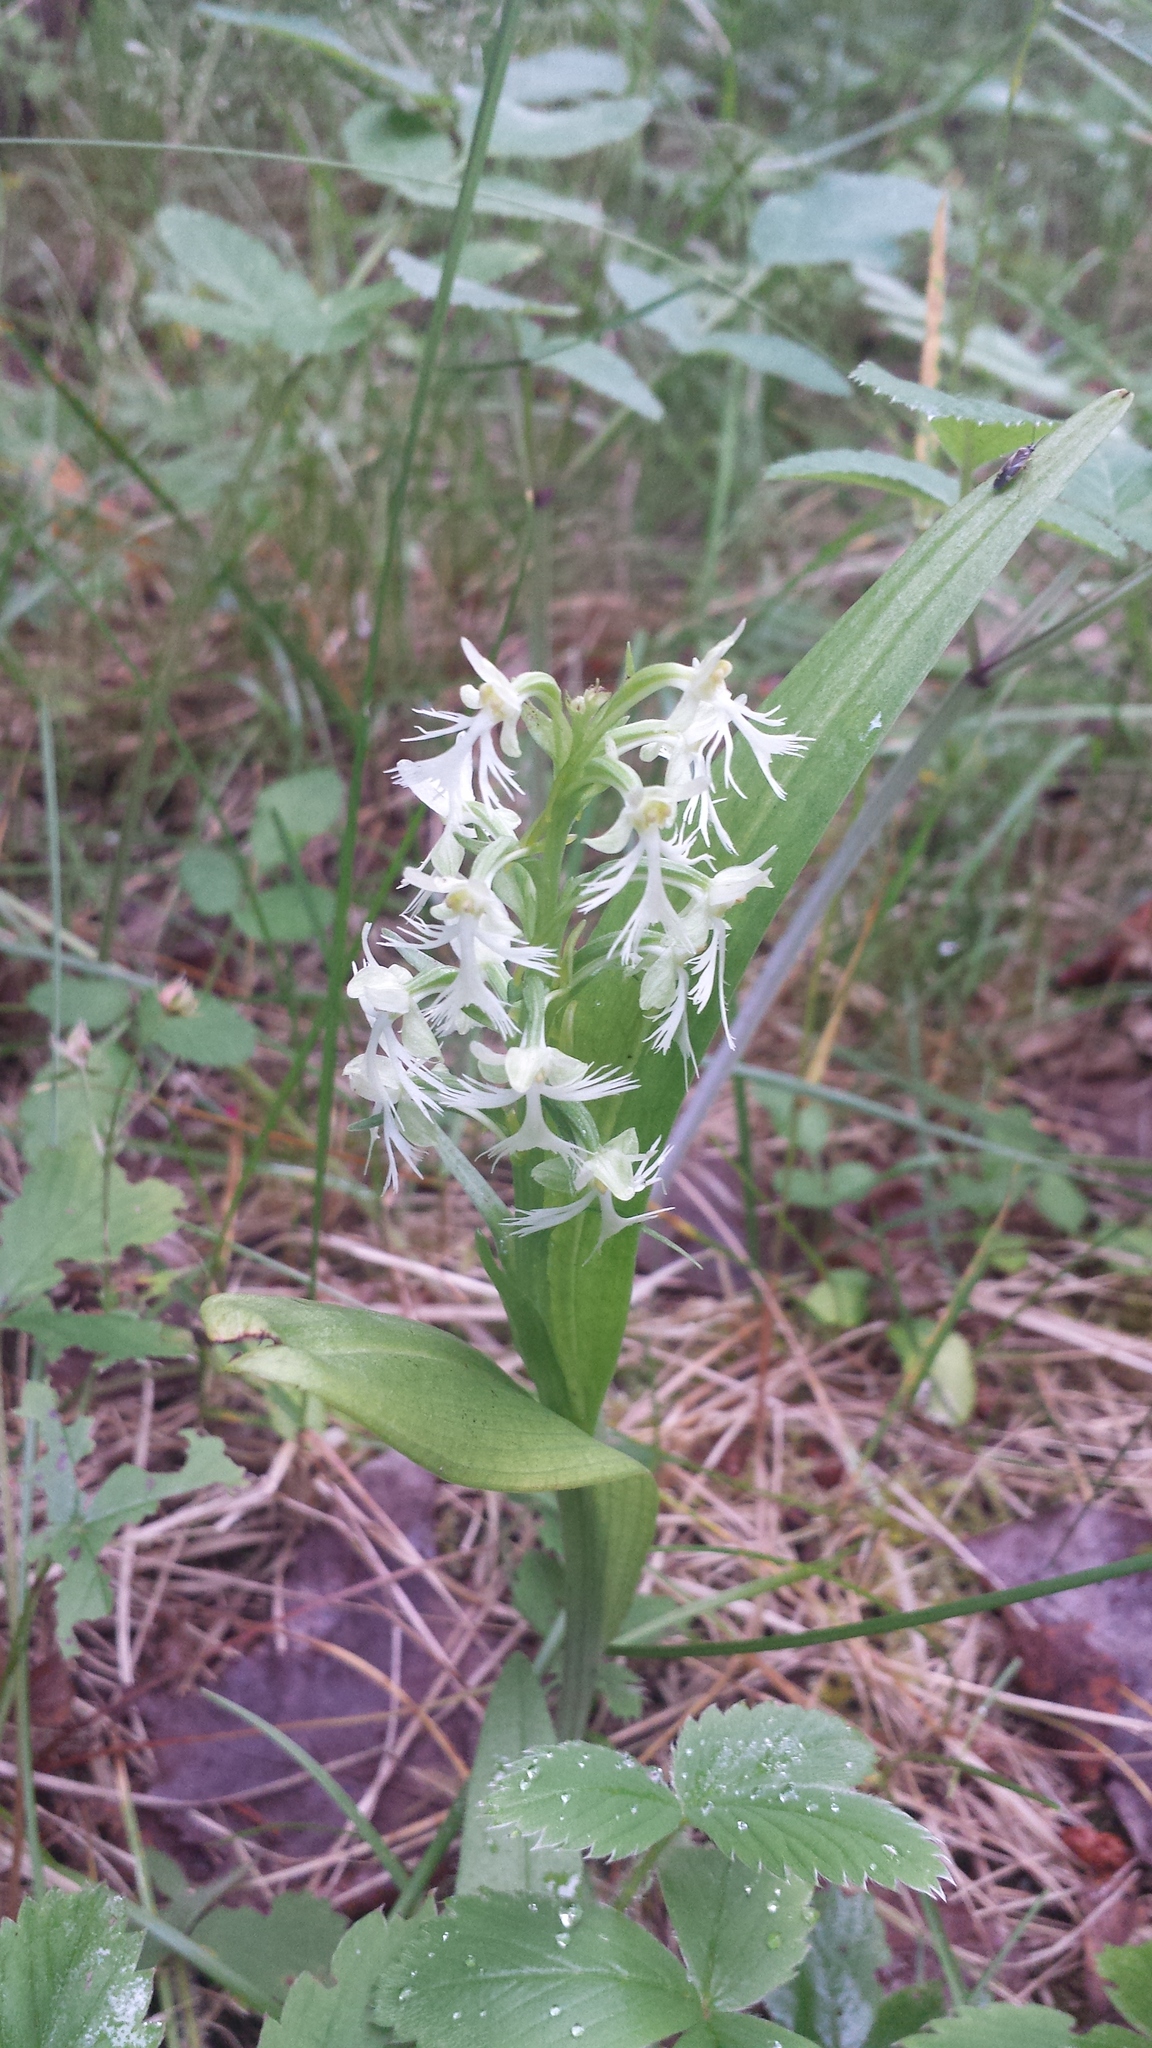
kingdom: Plantae
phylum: Tracheophyta
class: Liliopsida
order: Asparagales
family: Orchidaceae
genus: Platanthera
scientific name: Platanthera lacera
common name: Green fringed orchid
